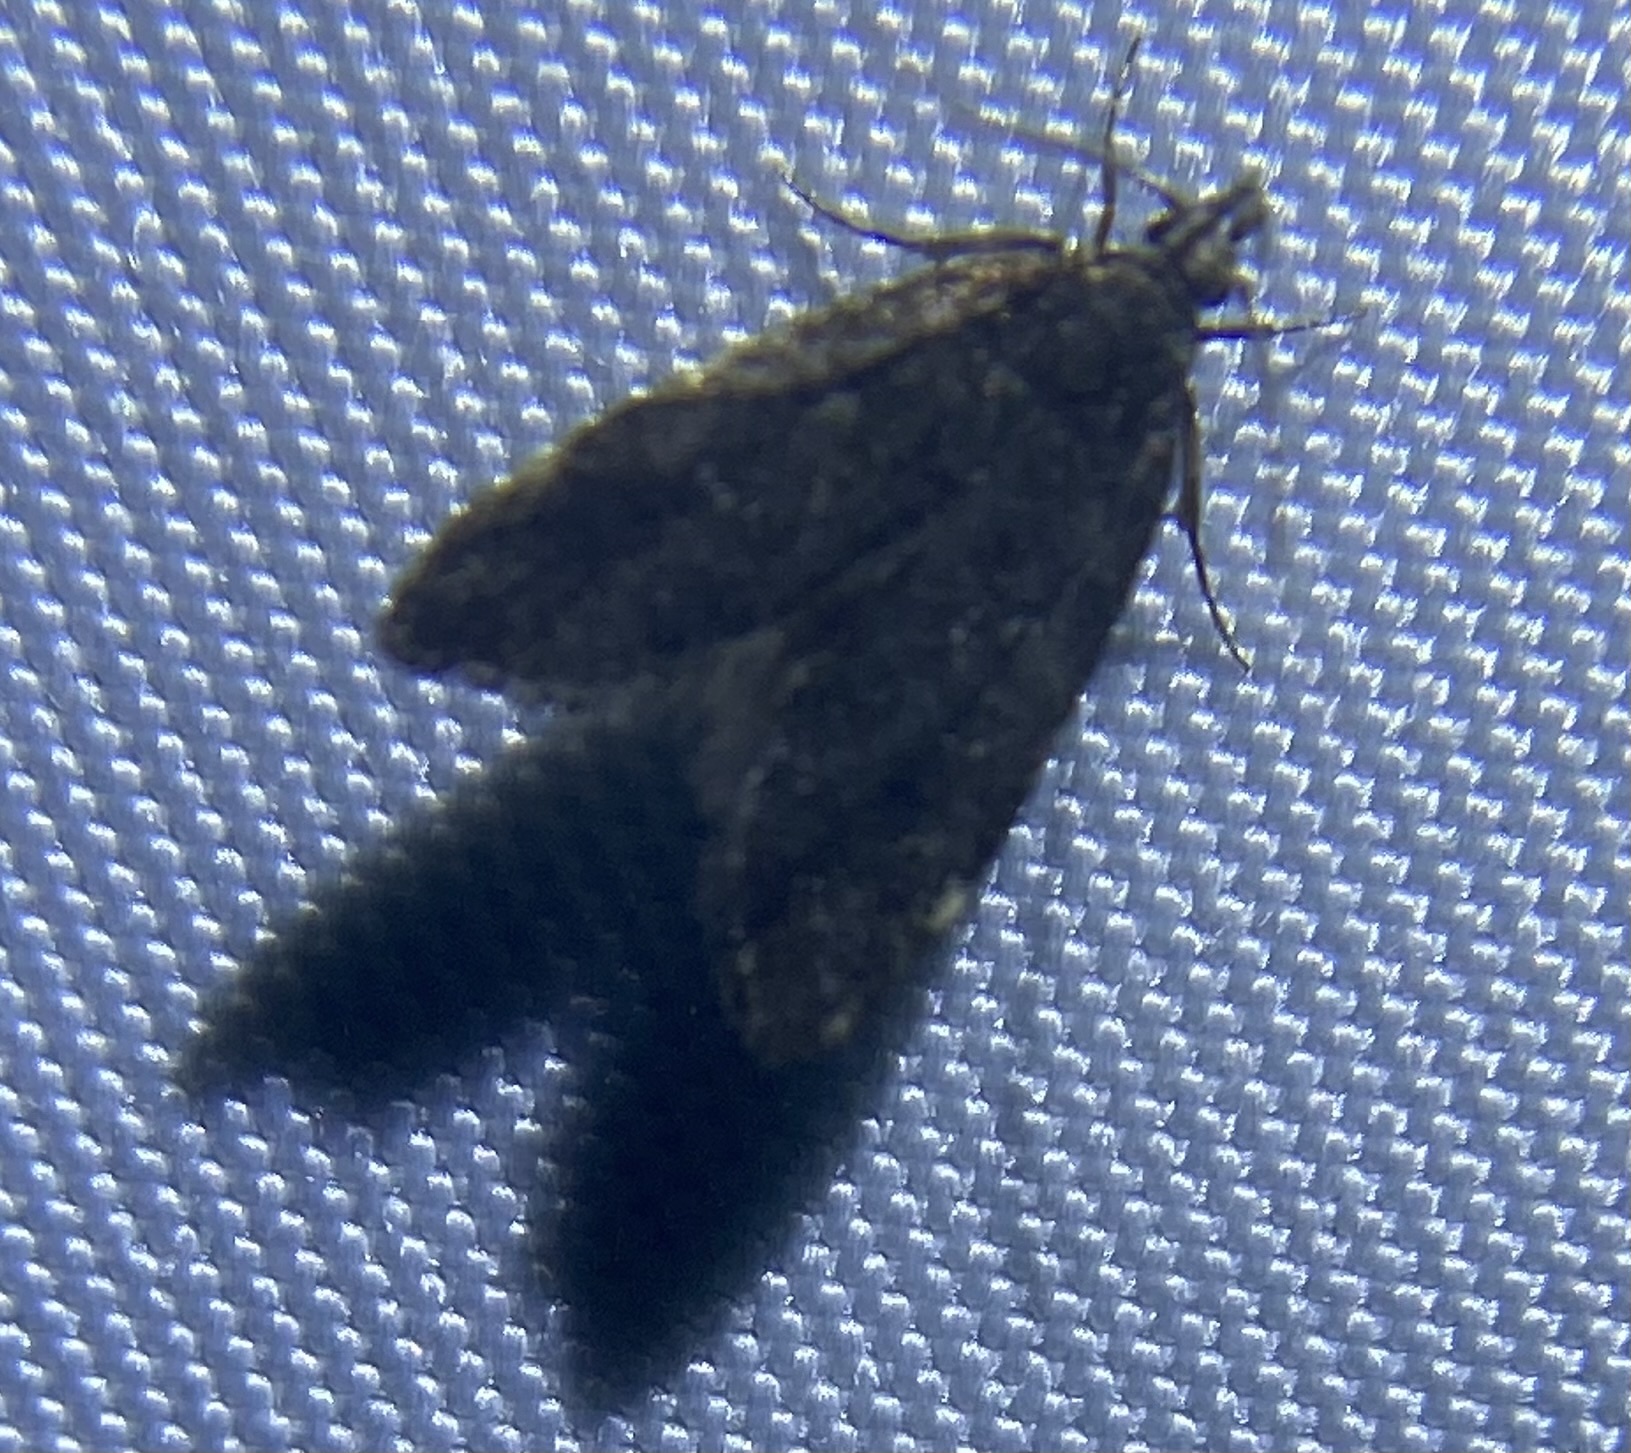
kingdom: Animalia
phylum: Arthropoda
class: Insecta
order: Lepidoptera
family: Oecophoridae
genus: Eido
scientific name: Eido trimaculella
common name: Three-spotted concealer
